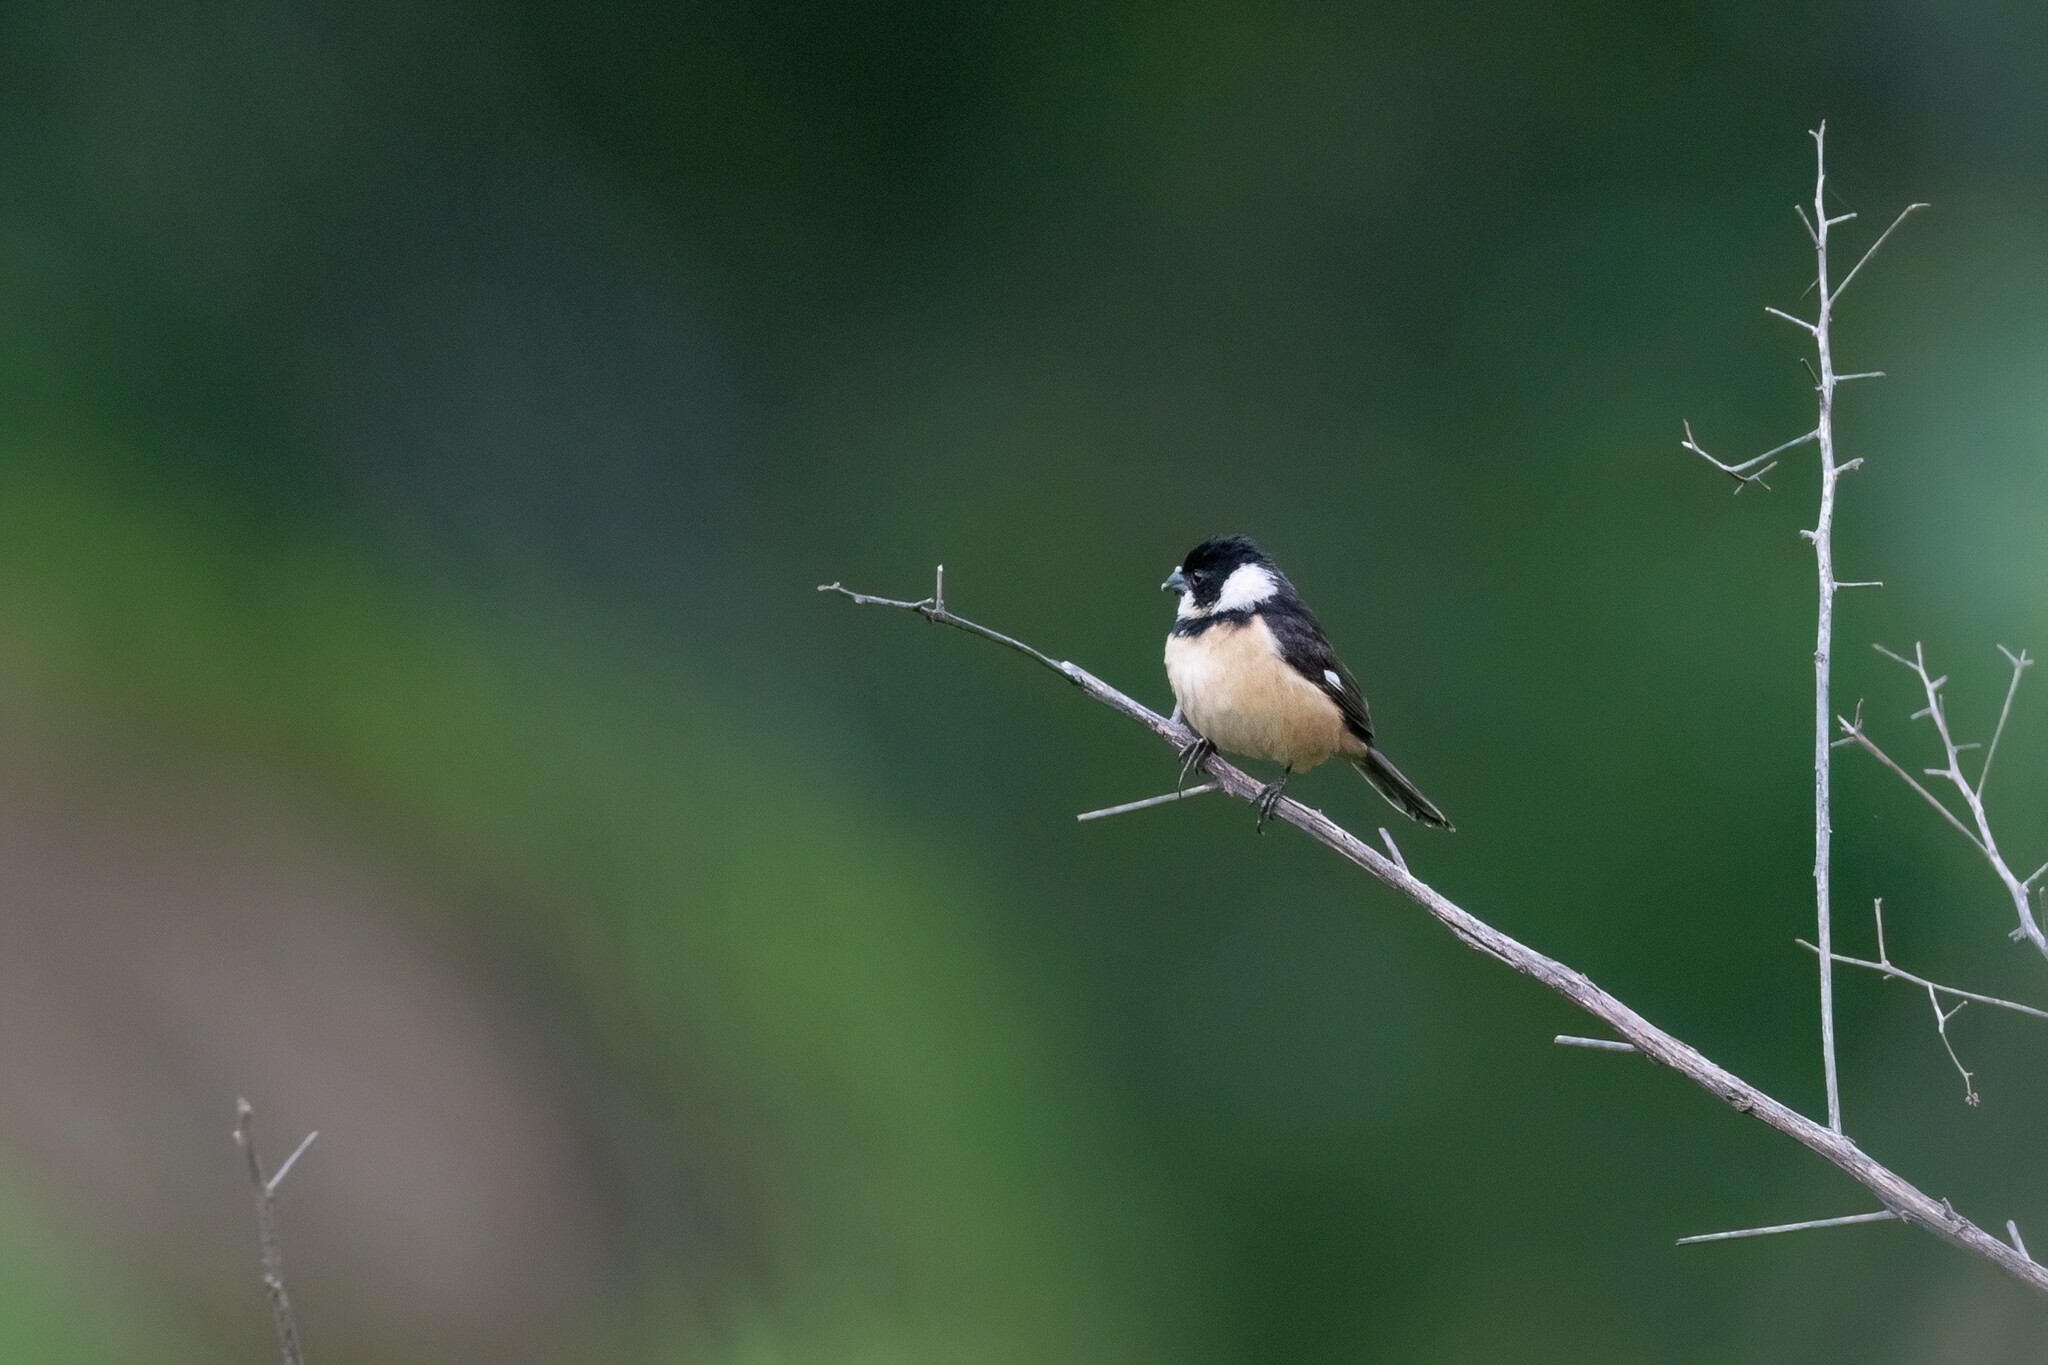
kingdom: Animalia
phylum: Chordata
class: Aves
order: Passeriformes
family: Thraupidae
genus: Sporophila
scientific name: Sporophila torqueola
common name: White-collared seedeater
